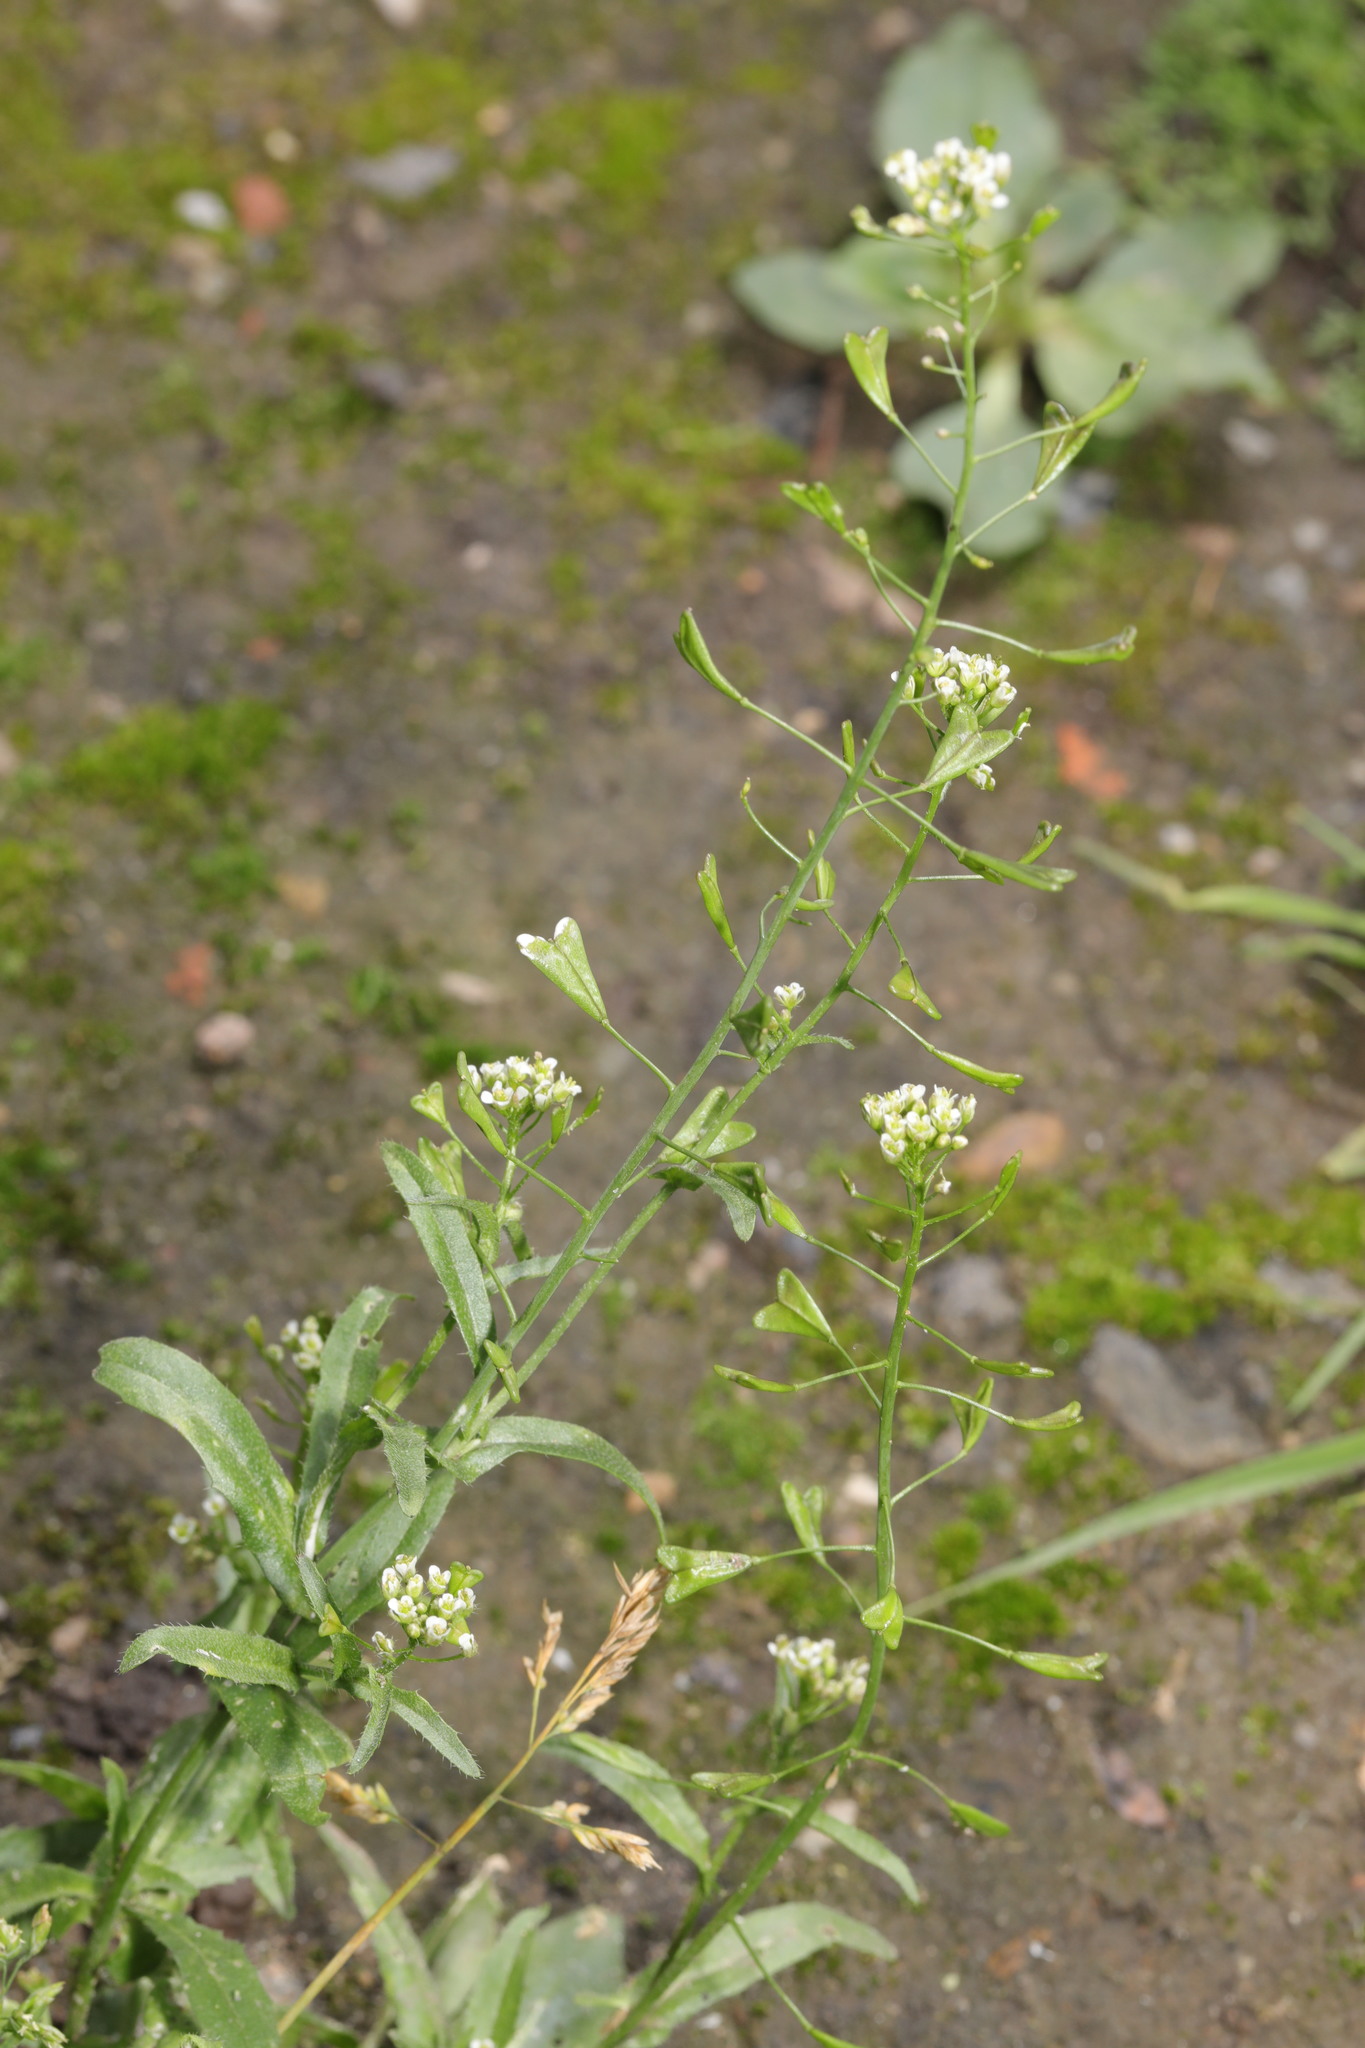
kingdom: Plantae
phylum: Tracheophyta
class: Magnoliopsida
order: Brassicales
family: Brassicaceae
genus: Capsella
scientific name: Capsella bursa-pastoris
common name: Shepherd's purse
